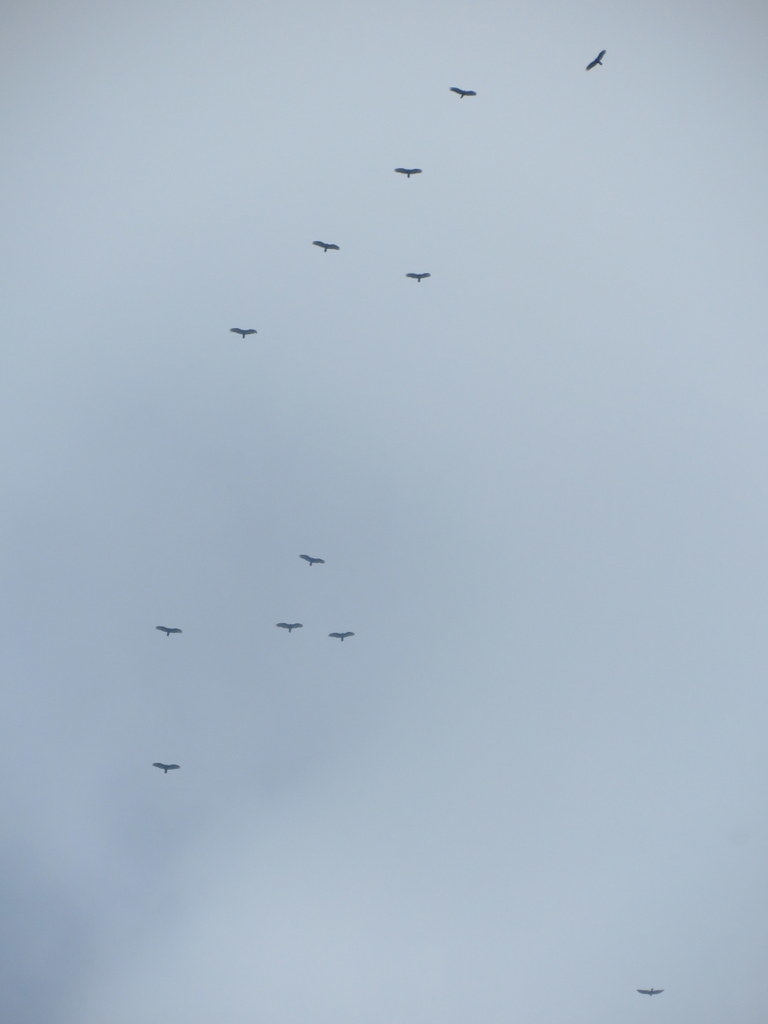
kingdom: Animalia
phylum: Chordata
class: Aves
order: Accipitriformes
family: Cathartidae
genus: Cathartes
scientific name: Cathartes aura
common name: Turkey vulture
